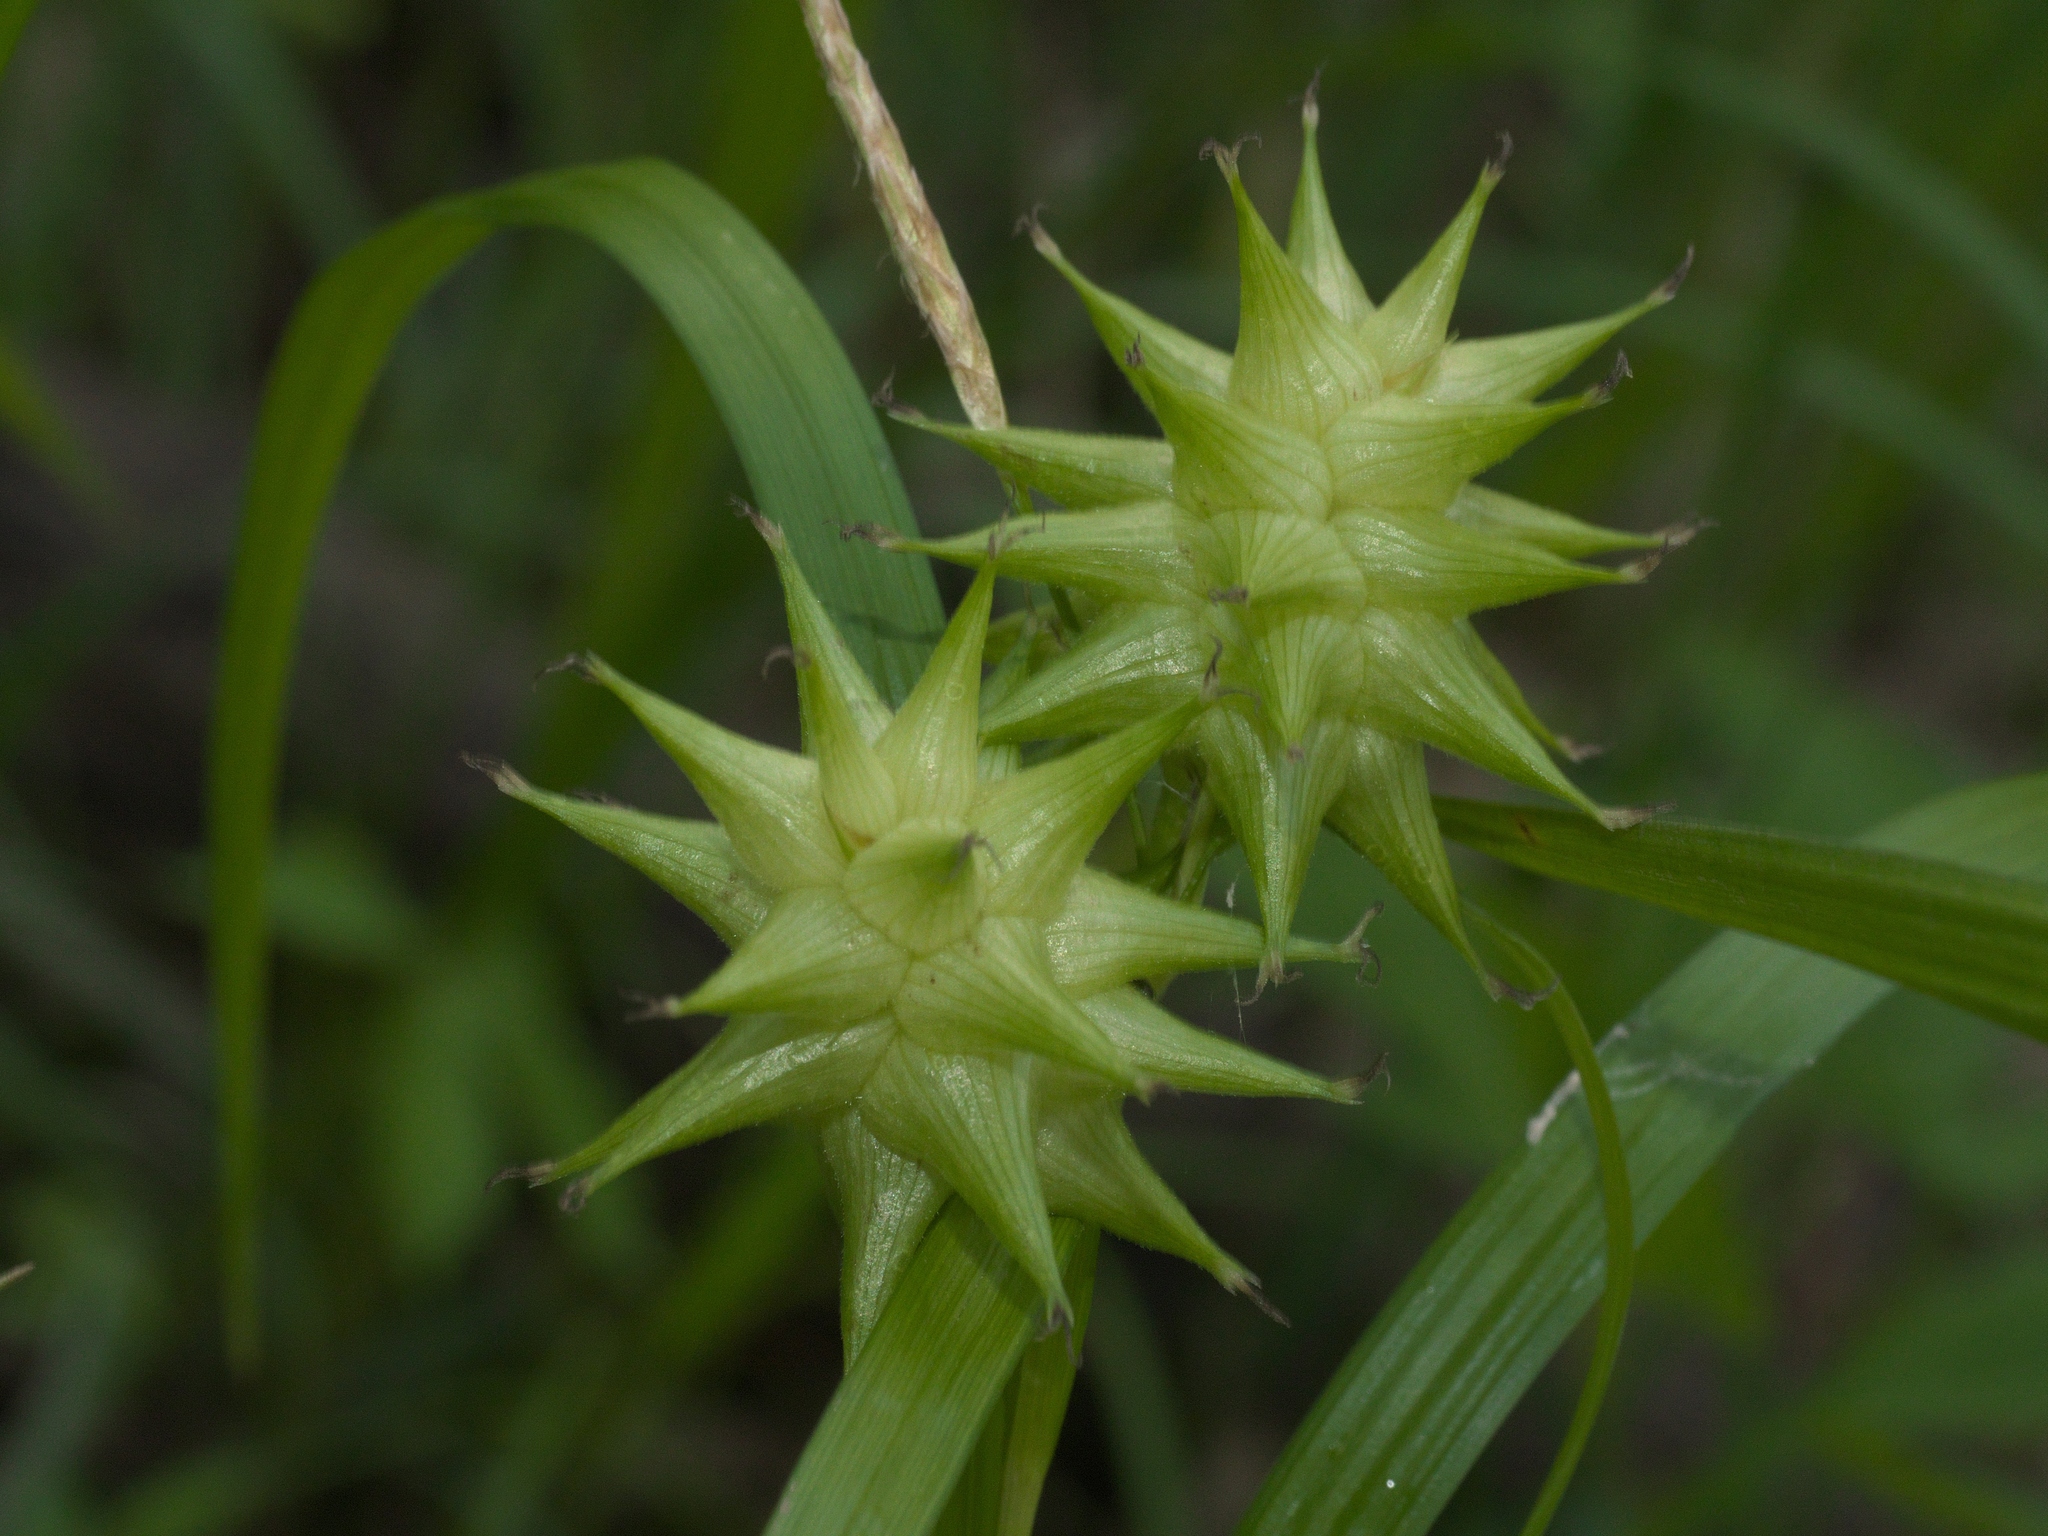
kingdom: Plantae
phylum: Tracheophyta
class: Liliopsida
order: Poales
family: Cyperaceae
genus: Carex
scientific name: Carex grayi
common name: Asa gray's sedge
